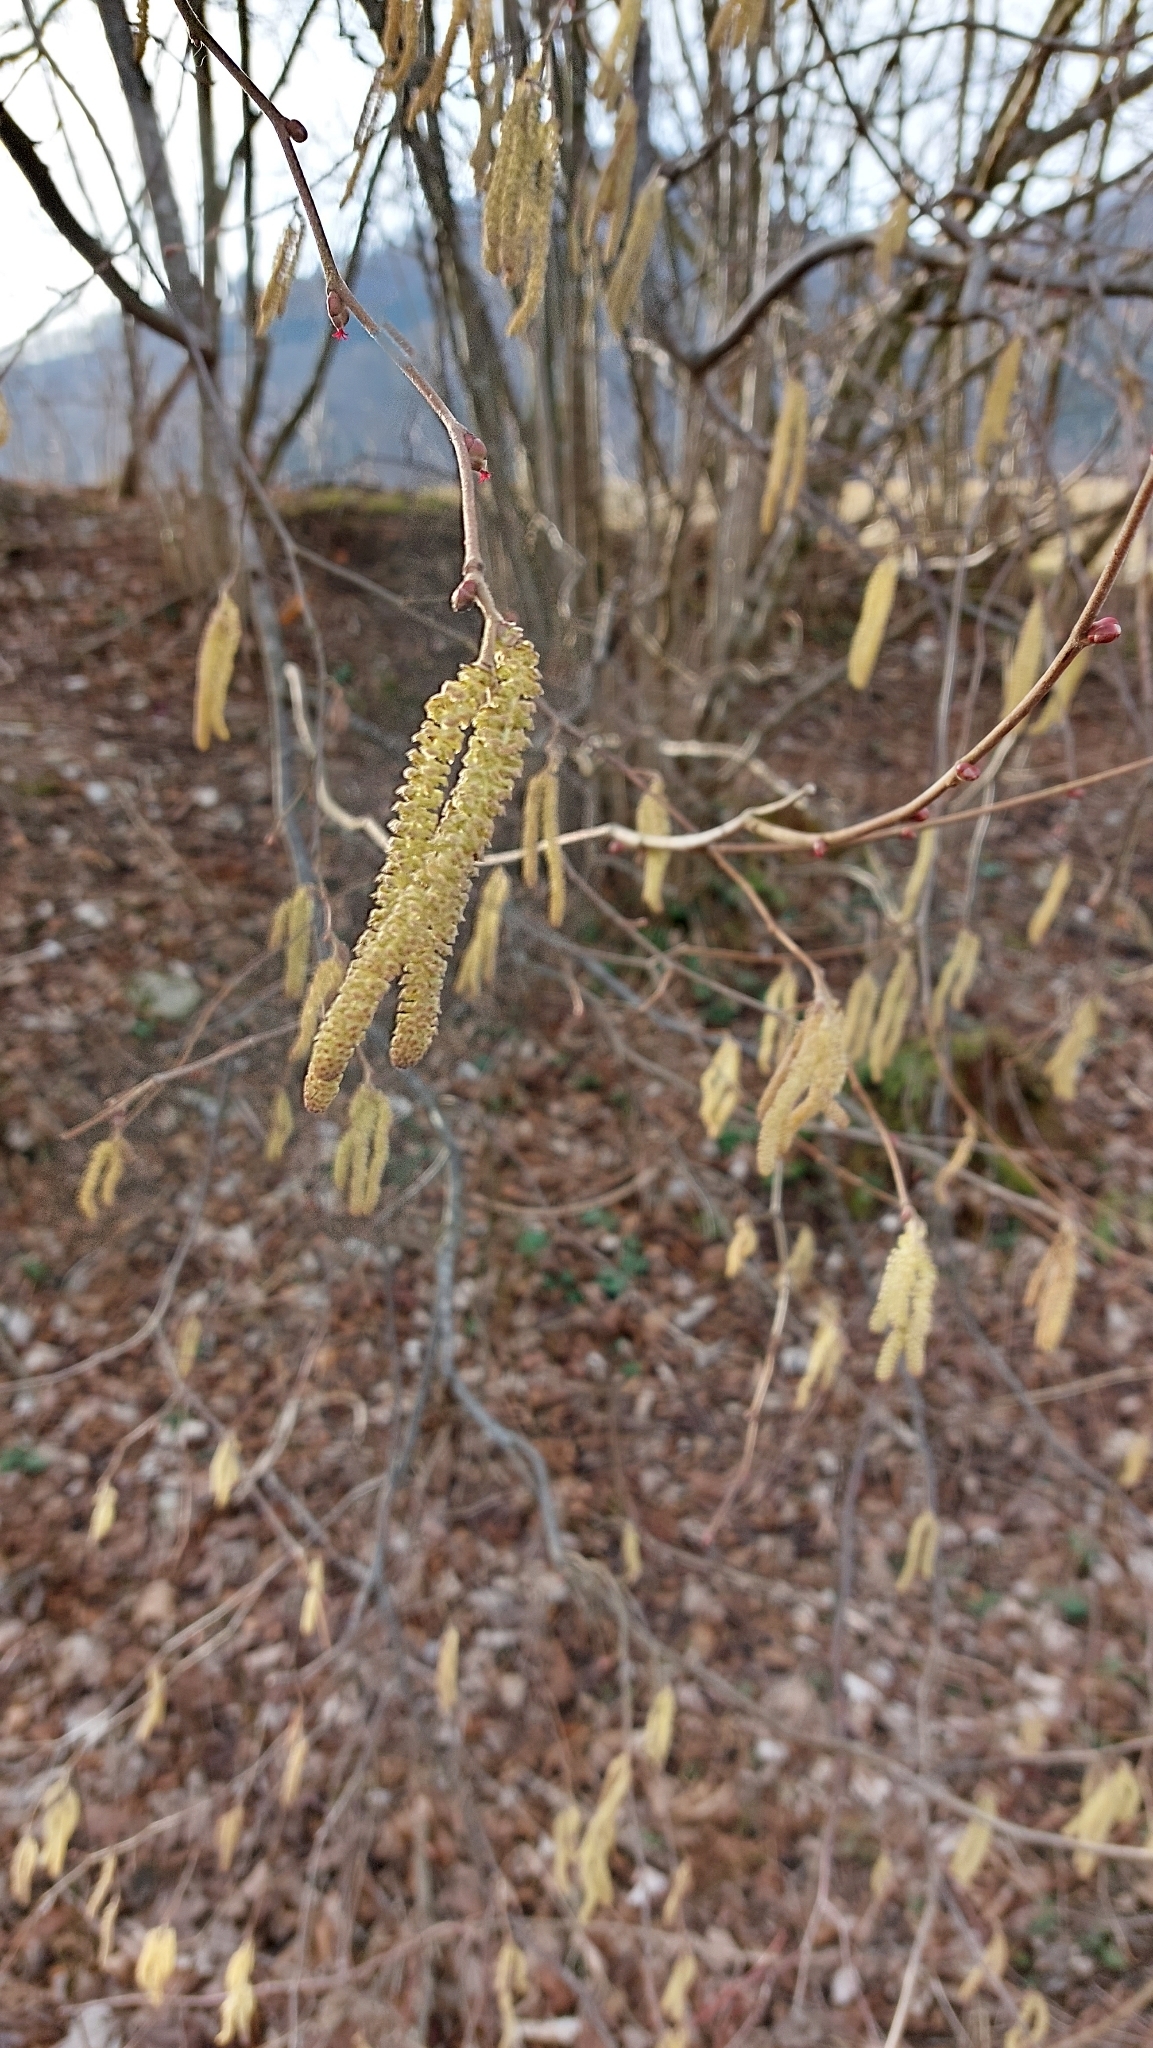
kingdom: Plantae
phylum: Tracheophyta
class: Magnoliopsida
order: Fagales
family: Betulaceae
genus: Corylus
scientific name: Corylus avellana
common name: European hazel
